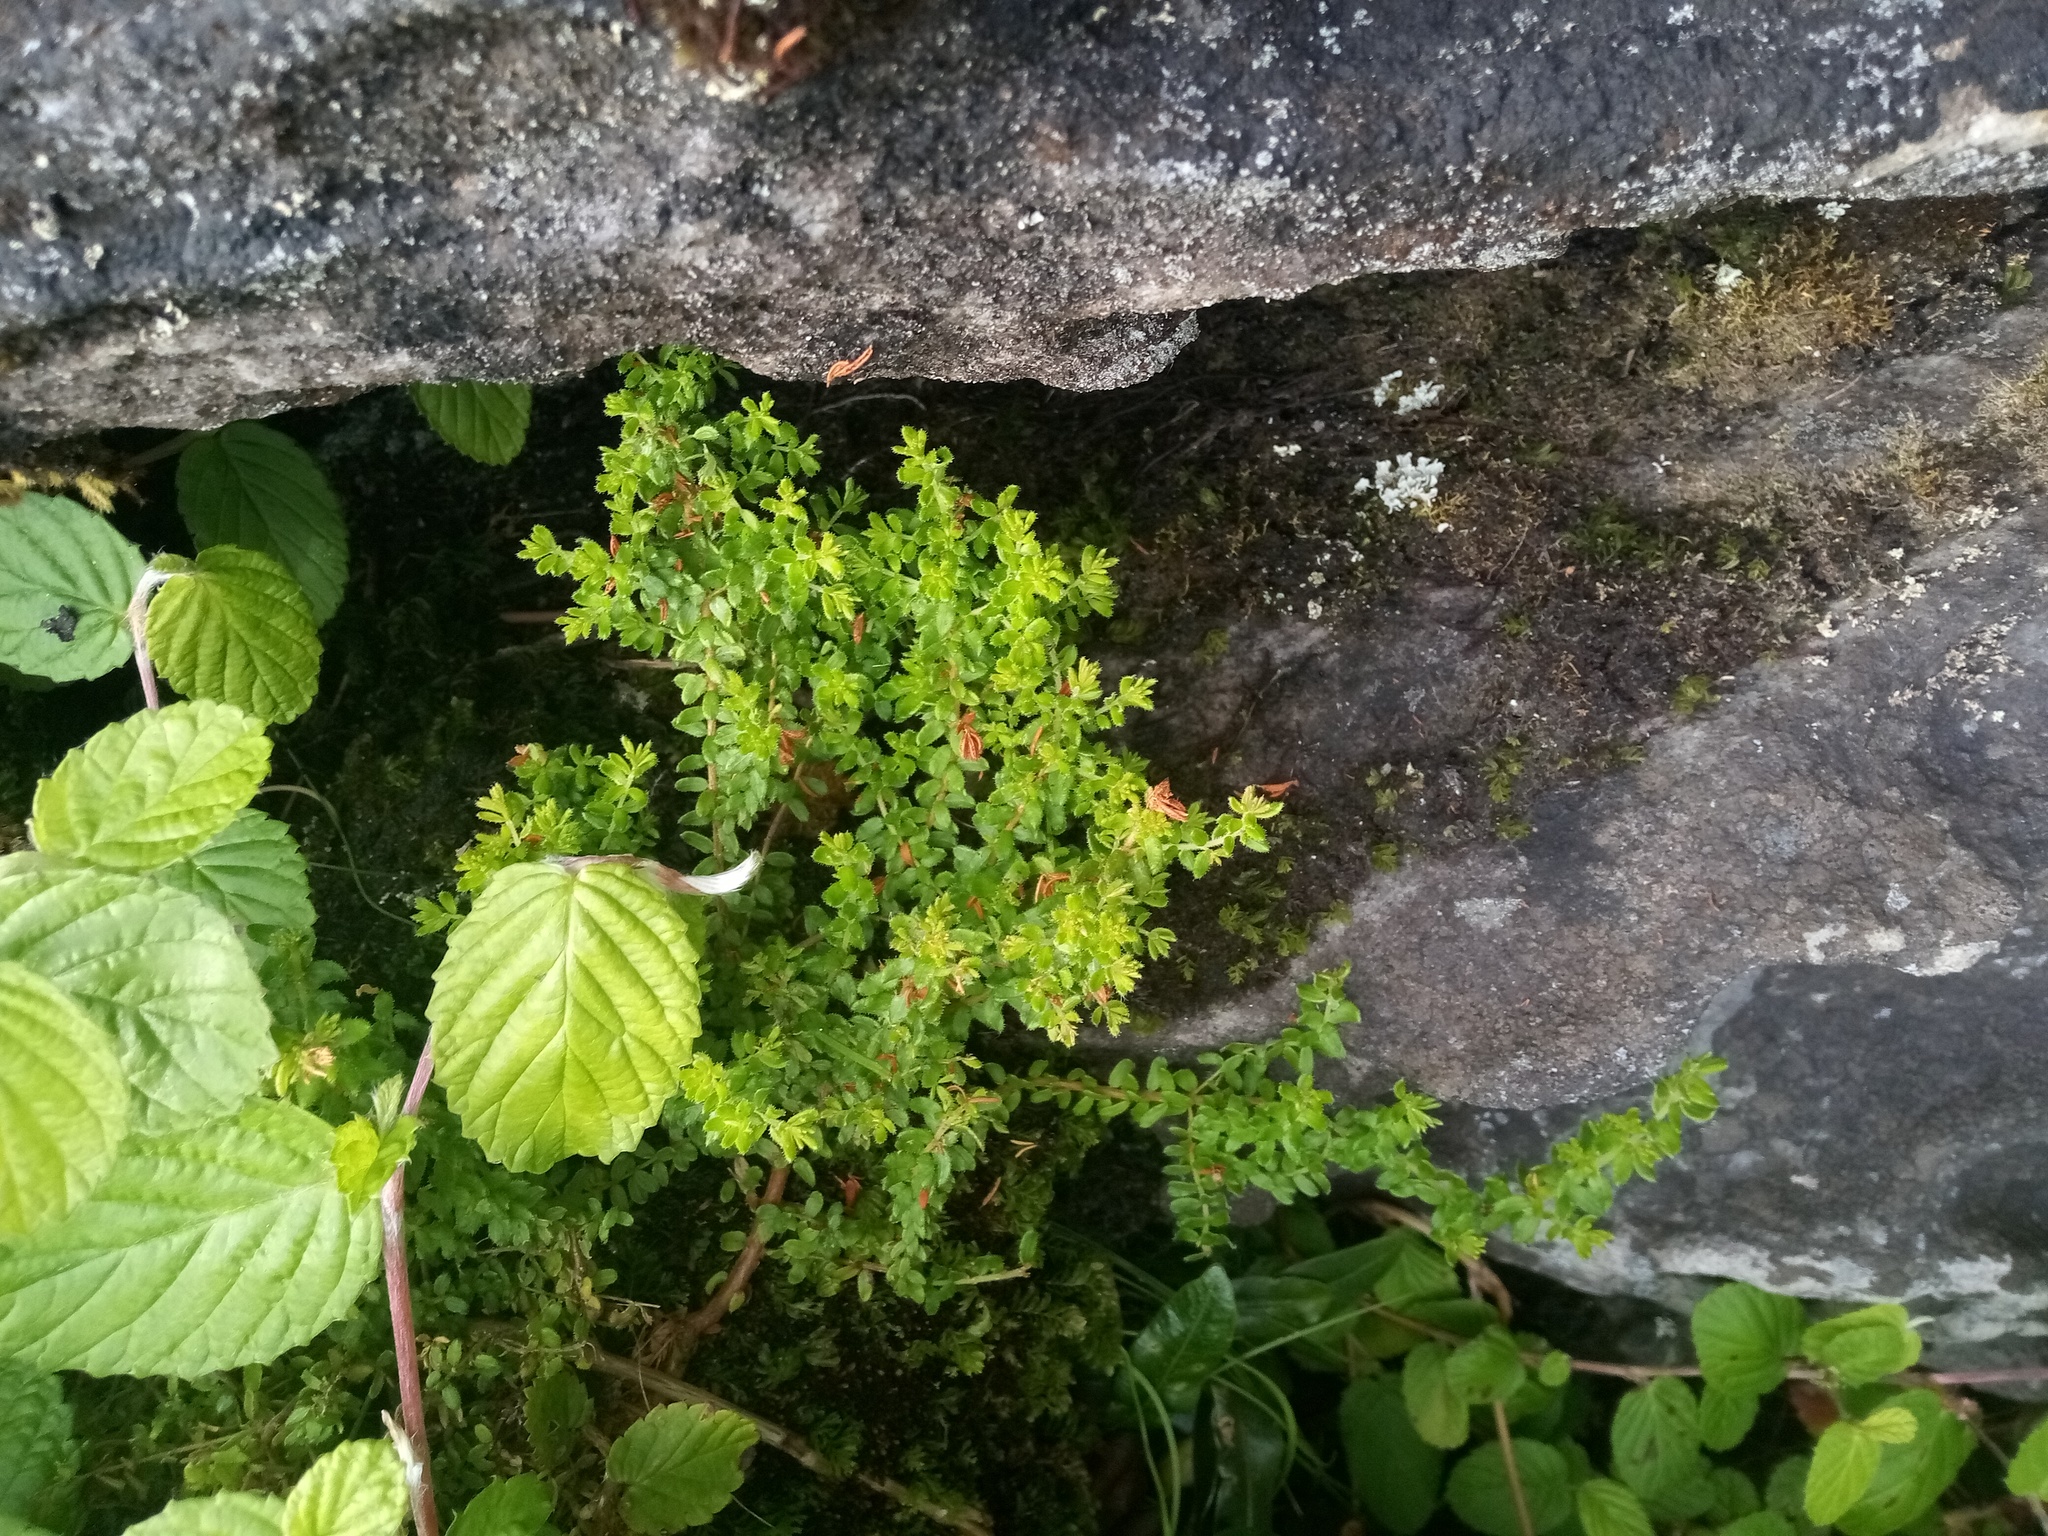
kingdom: Plantae
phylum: Tracheophyta
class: Magnoliopsida
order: Rosales
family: Rosaceae
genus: Cliffortia
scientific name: Cliffortia odorata
